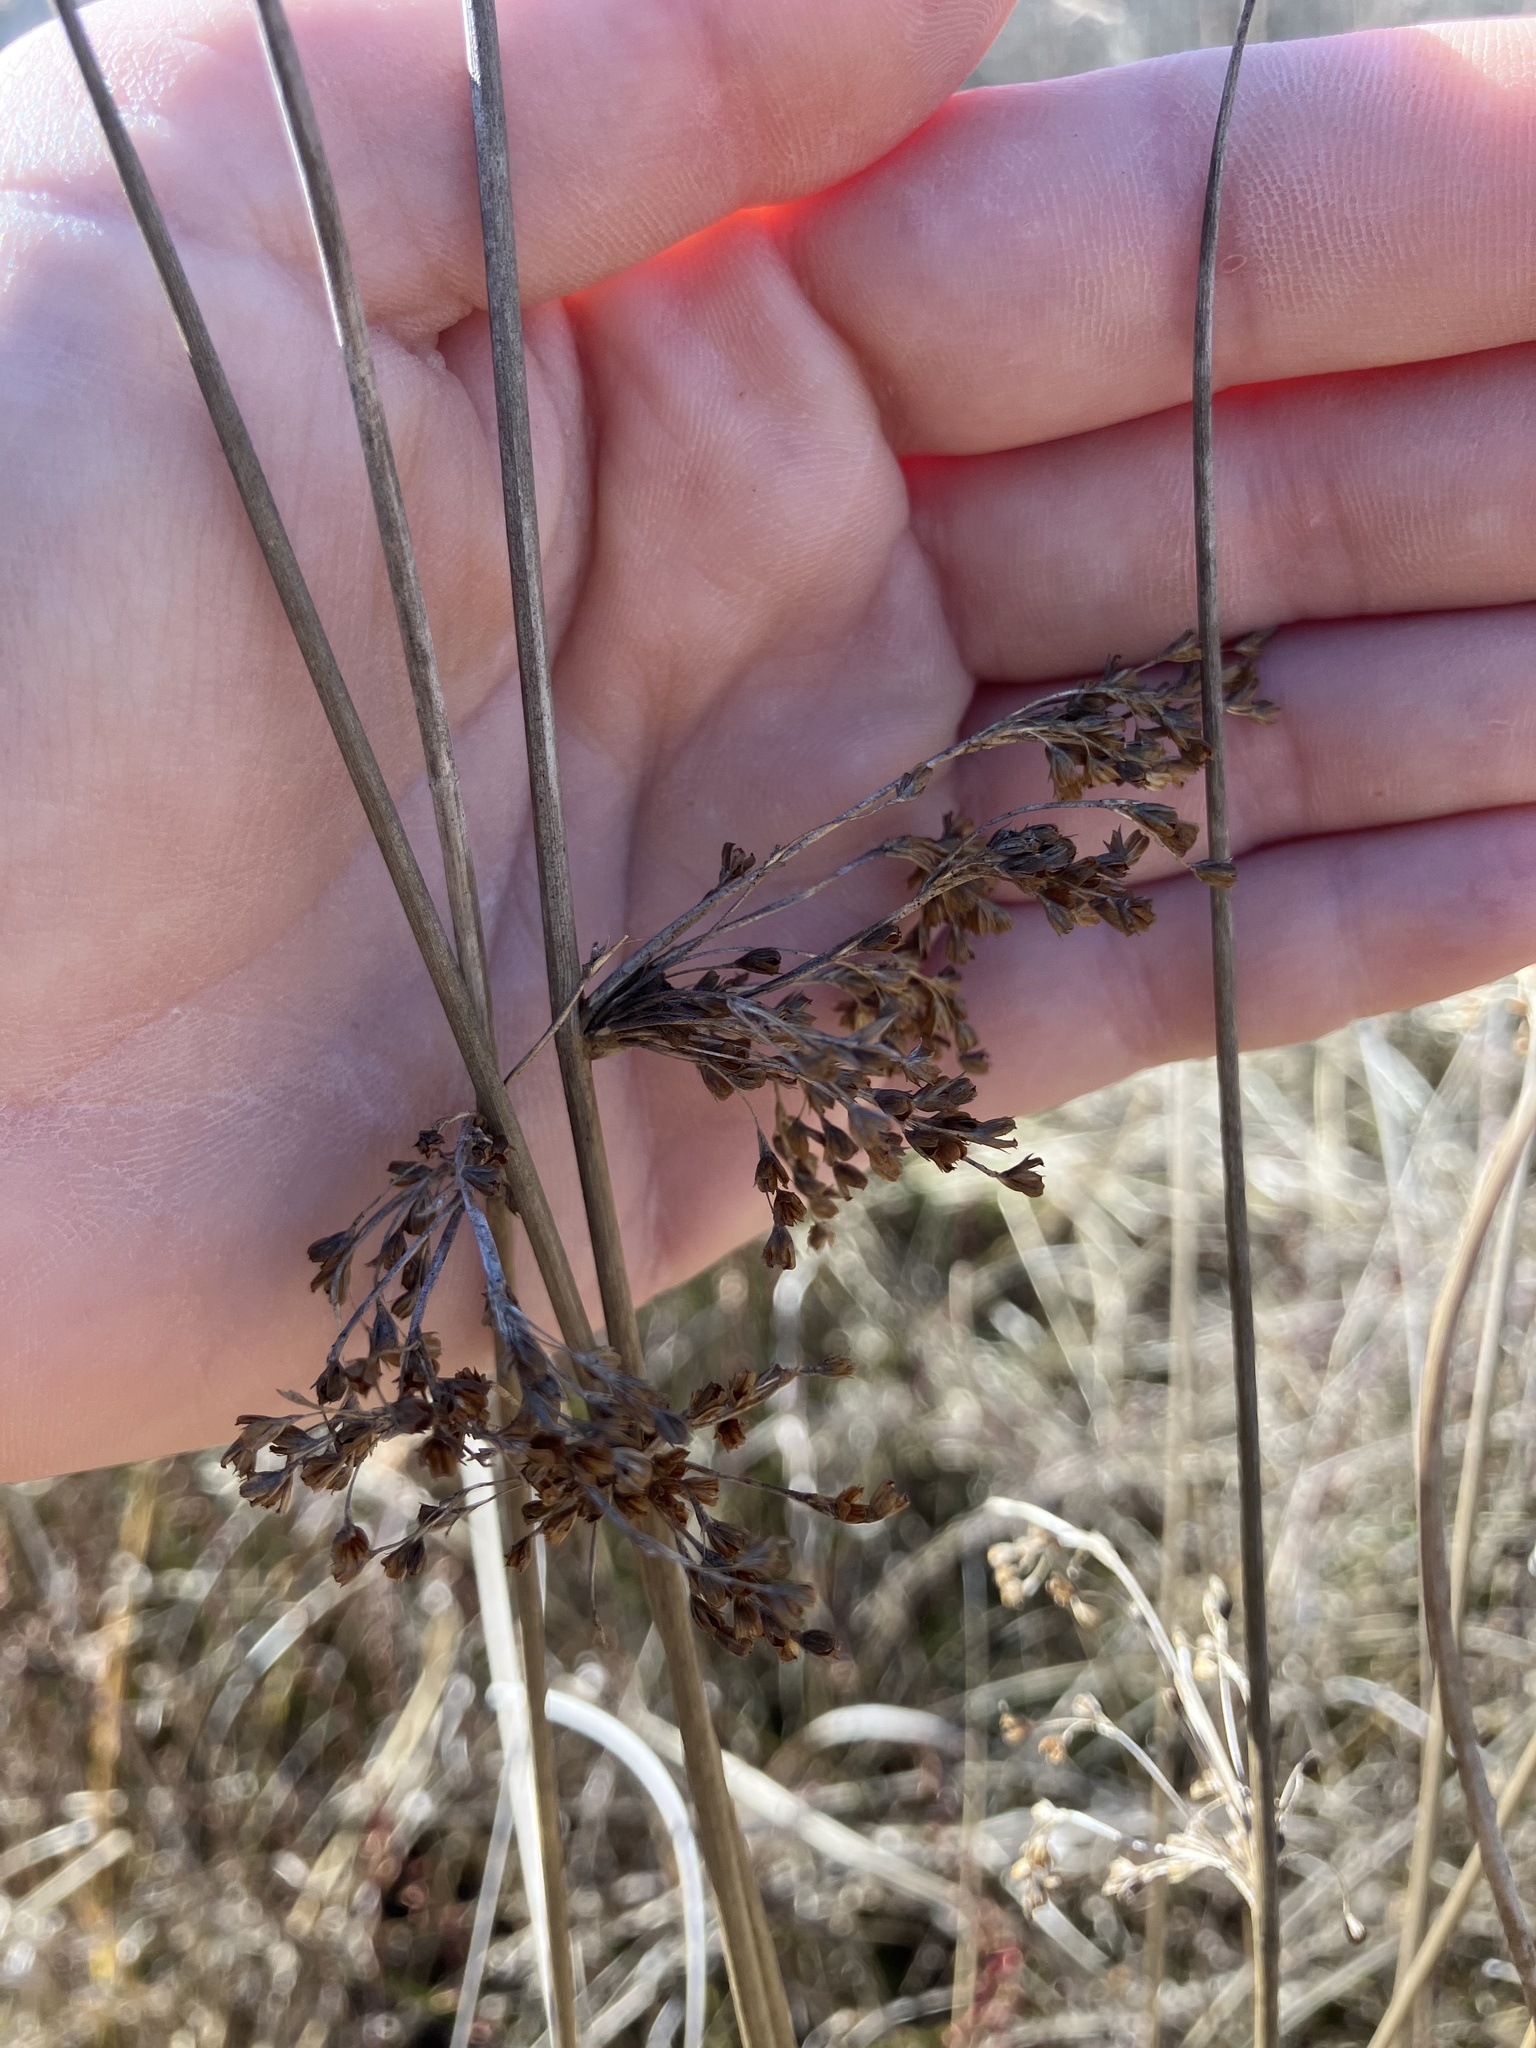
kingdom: Plantae
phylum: Tracheophyta
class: Liliopsida
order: Poales
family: Juncaceae
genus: Juncus
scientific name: Juncus effusus
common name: Soft rush
